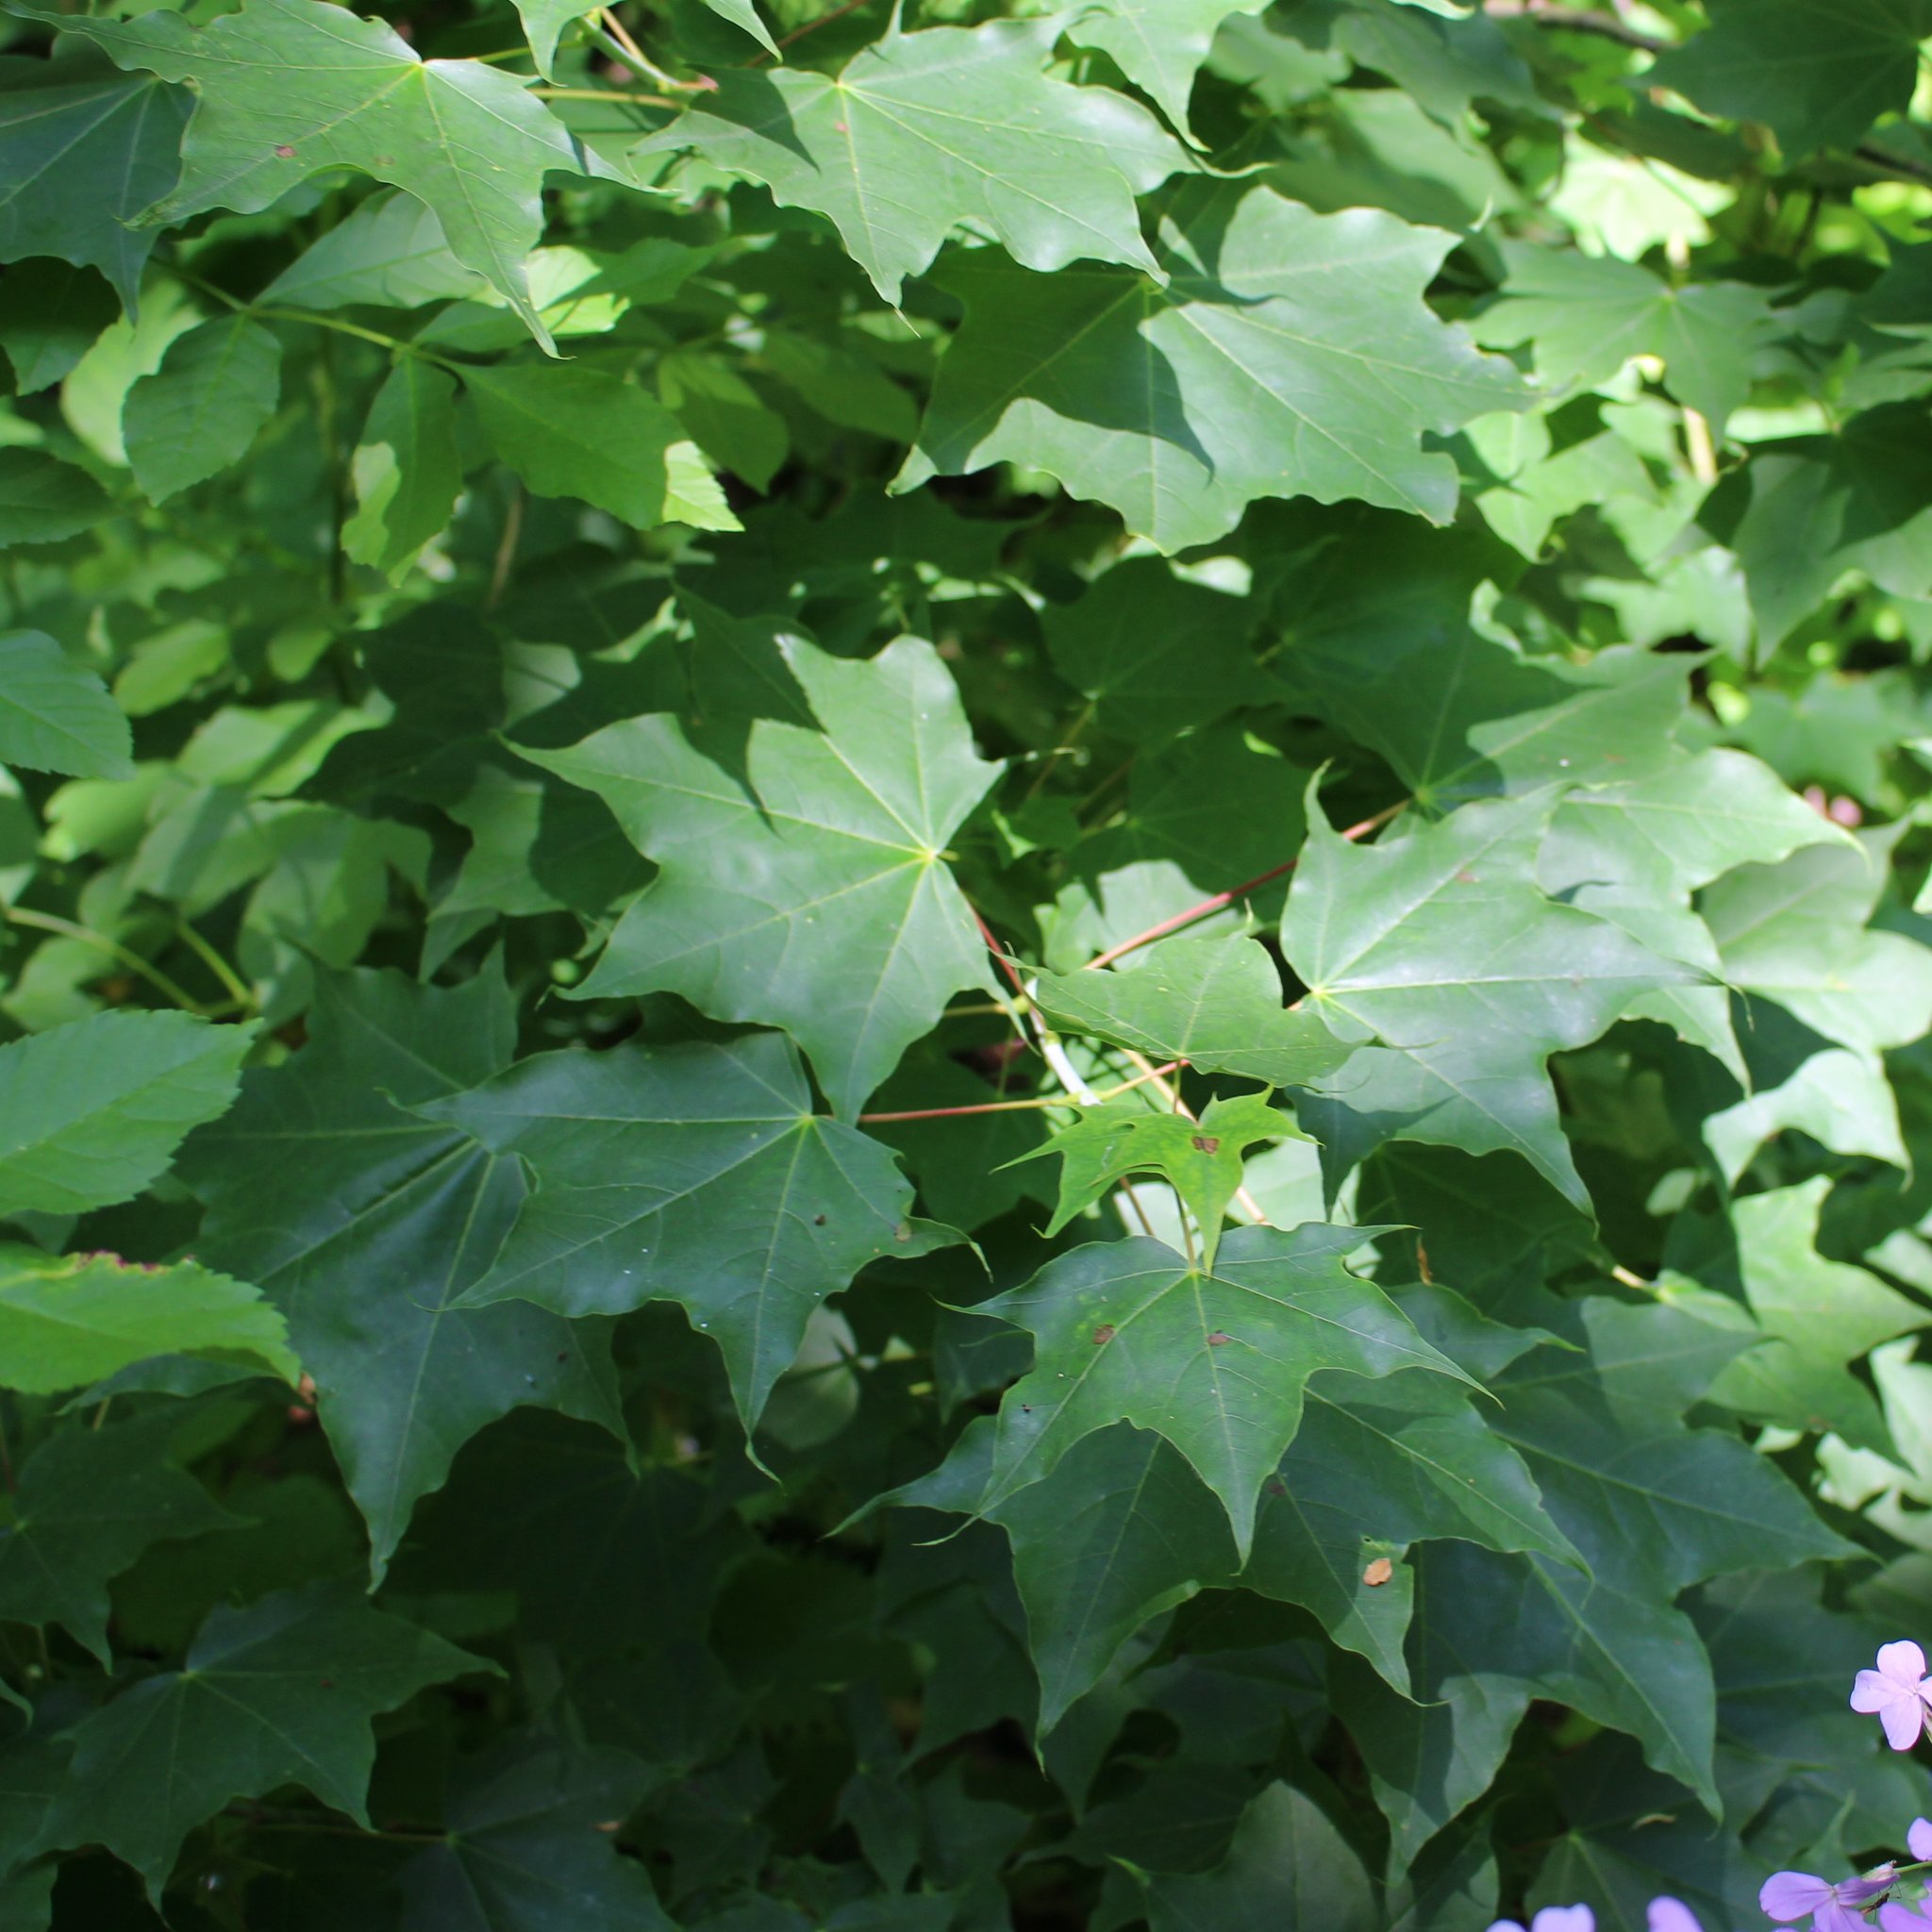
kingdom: Plantae
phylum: Tracheophyta
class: Magnoliopsida
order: Sapindales
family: Sapindaceae
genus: Acer
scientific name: Acer cappadocicum
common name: Cappadocian maple
